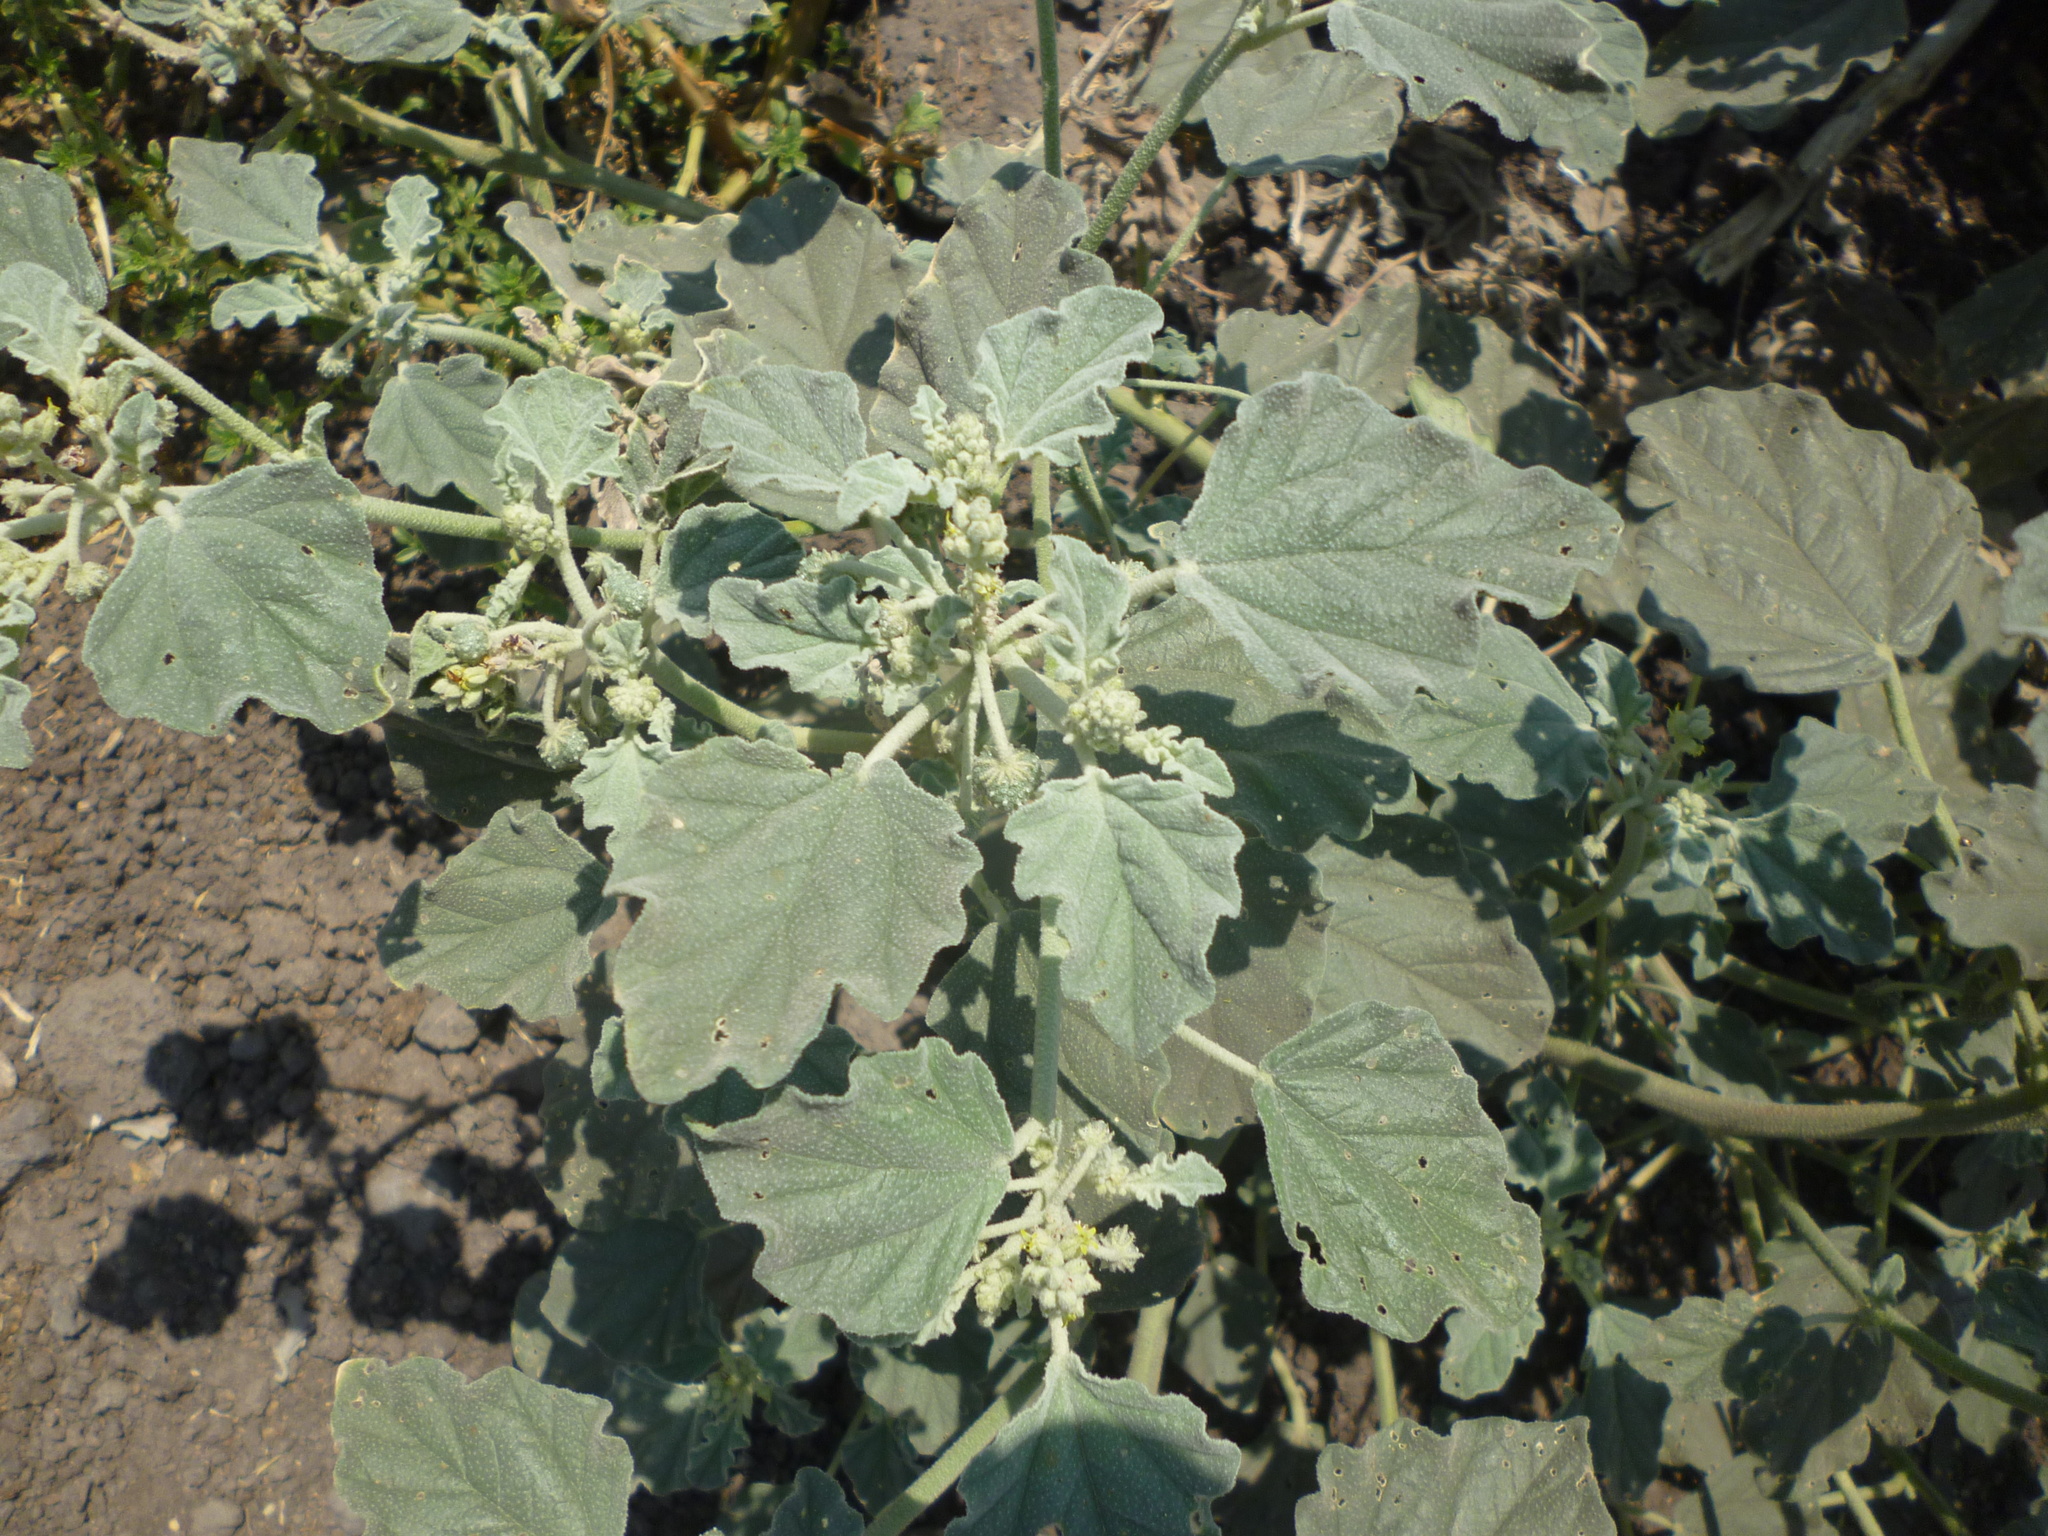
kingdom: Plantae
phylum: Tracheophyta
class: Magnoliopsida
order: Malpighiales
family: Euphorbiaceae
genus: Chrozophora
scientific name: Chrozophora tinctoria
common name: Dyer's litmus
